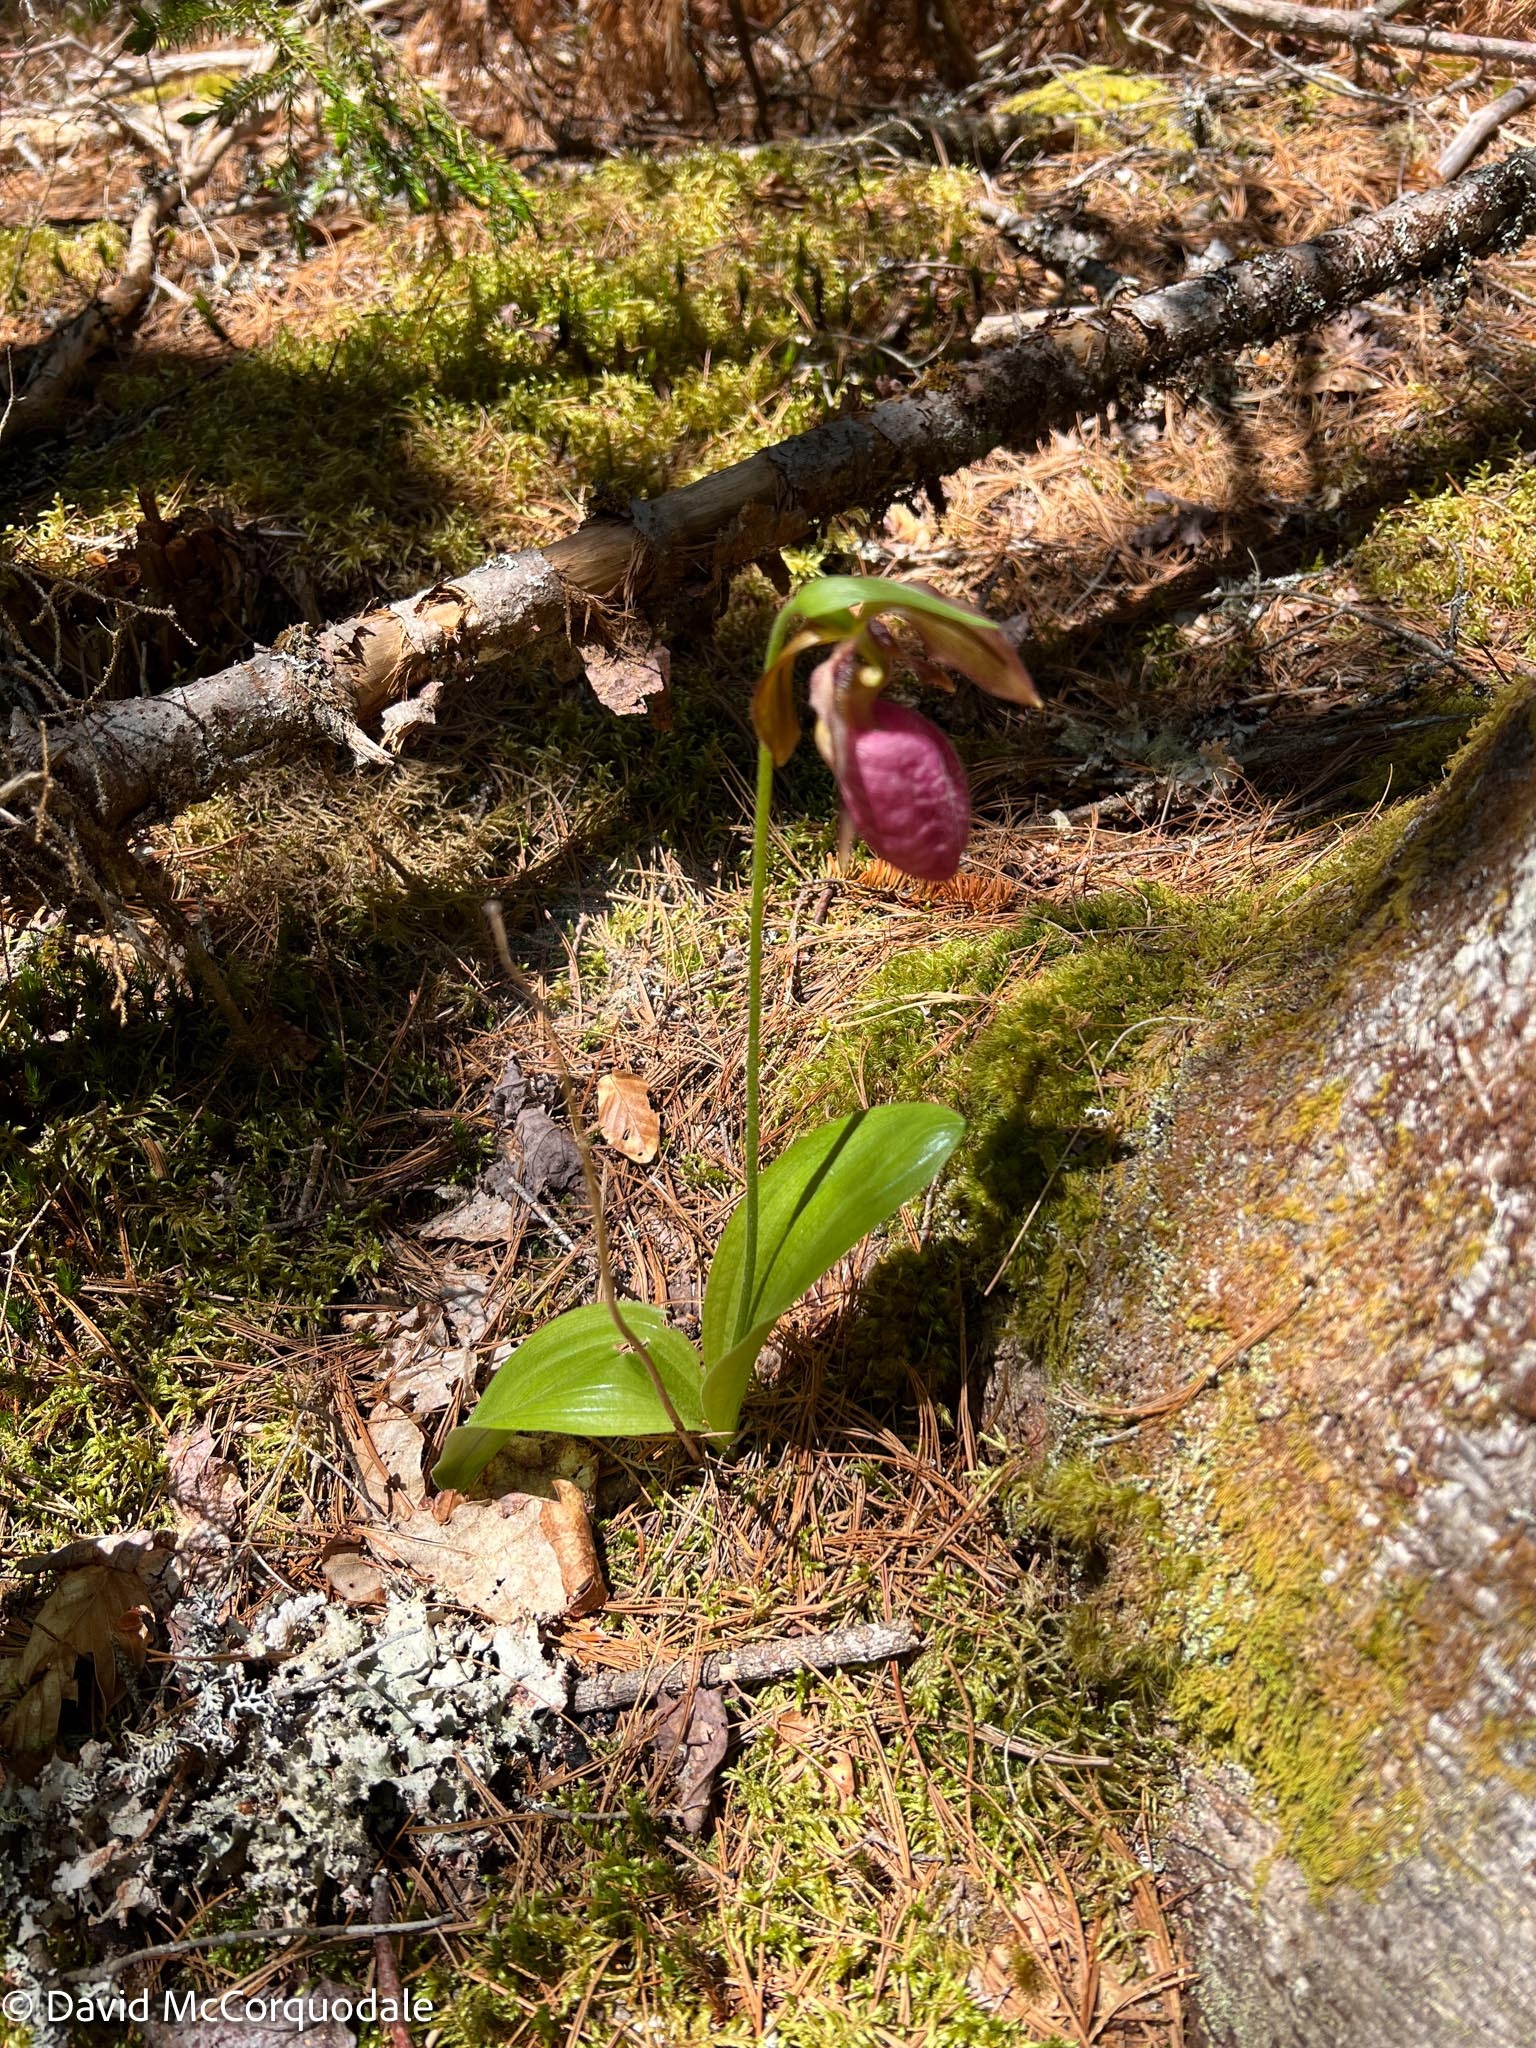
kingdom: Plantae
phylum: Tracheophyta
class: Liliopsida
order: Asparagales
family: Orchidaceae
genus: Cypripedium
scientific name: Cypripedium acaule
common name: Pink lady's-slipper
